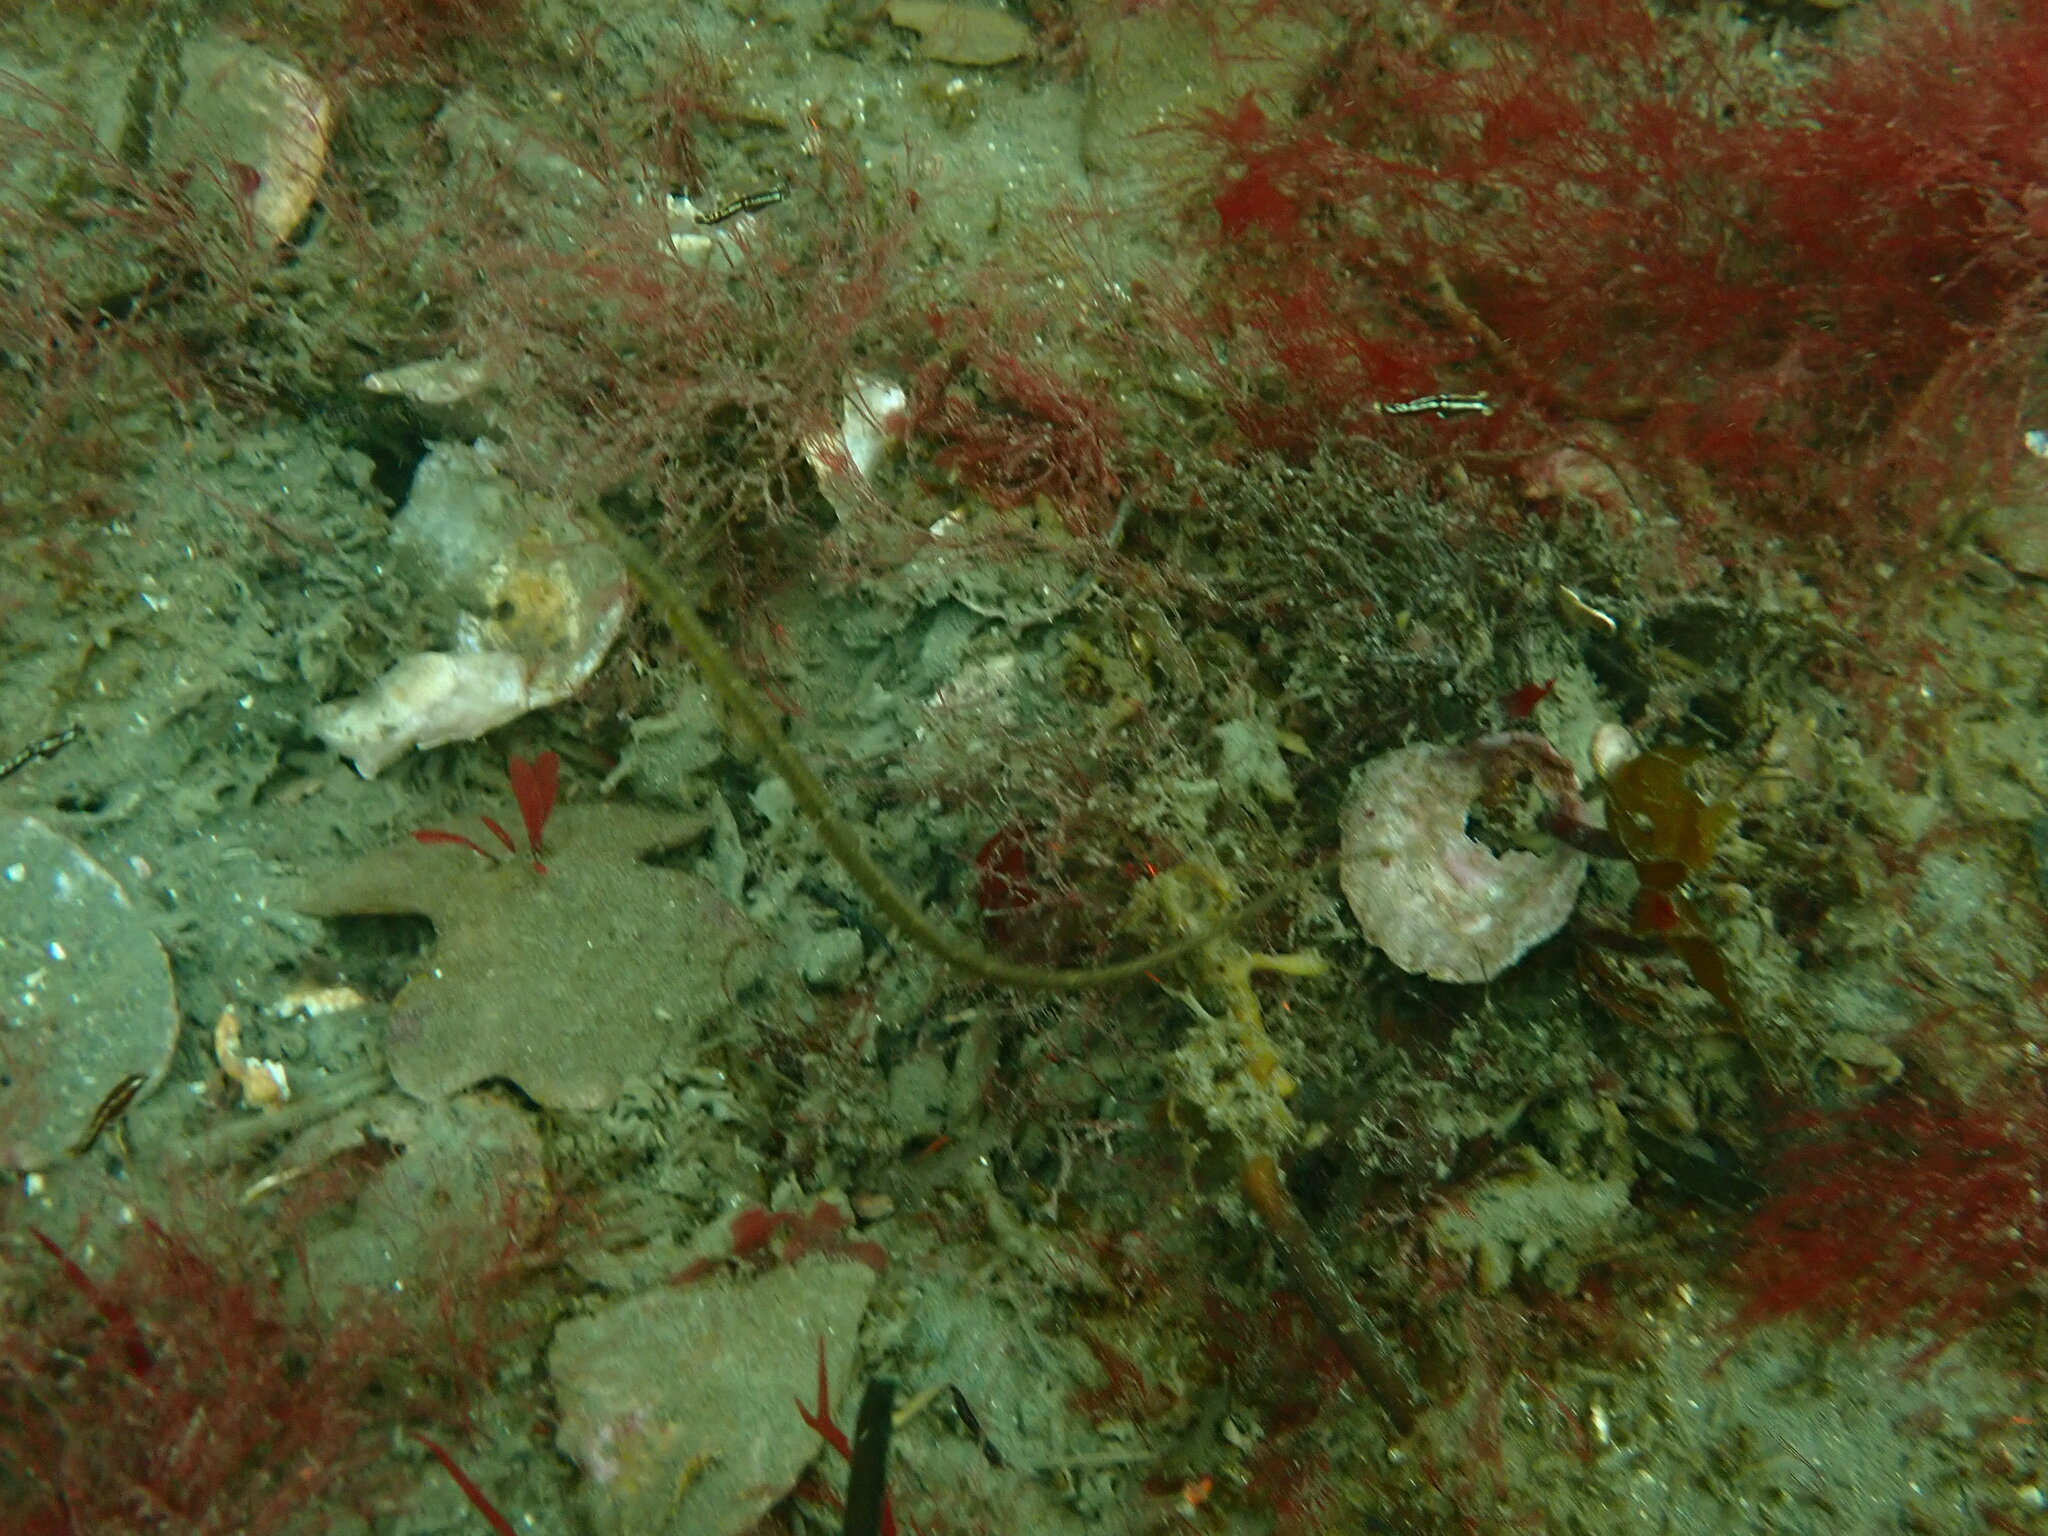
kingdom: Animalia
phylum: Chordata
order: Syngnathiformes
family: Syngnathidae
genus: Syngnathus
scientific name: Syngnathus californiensis
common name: Great pipefish
